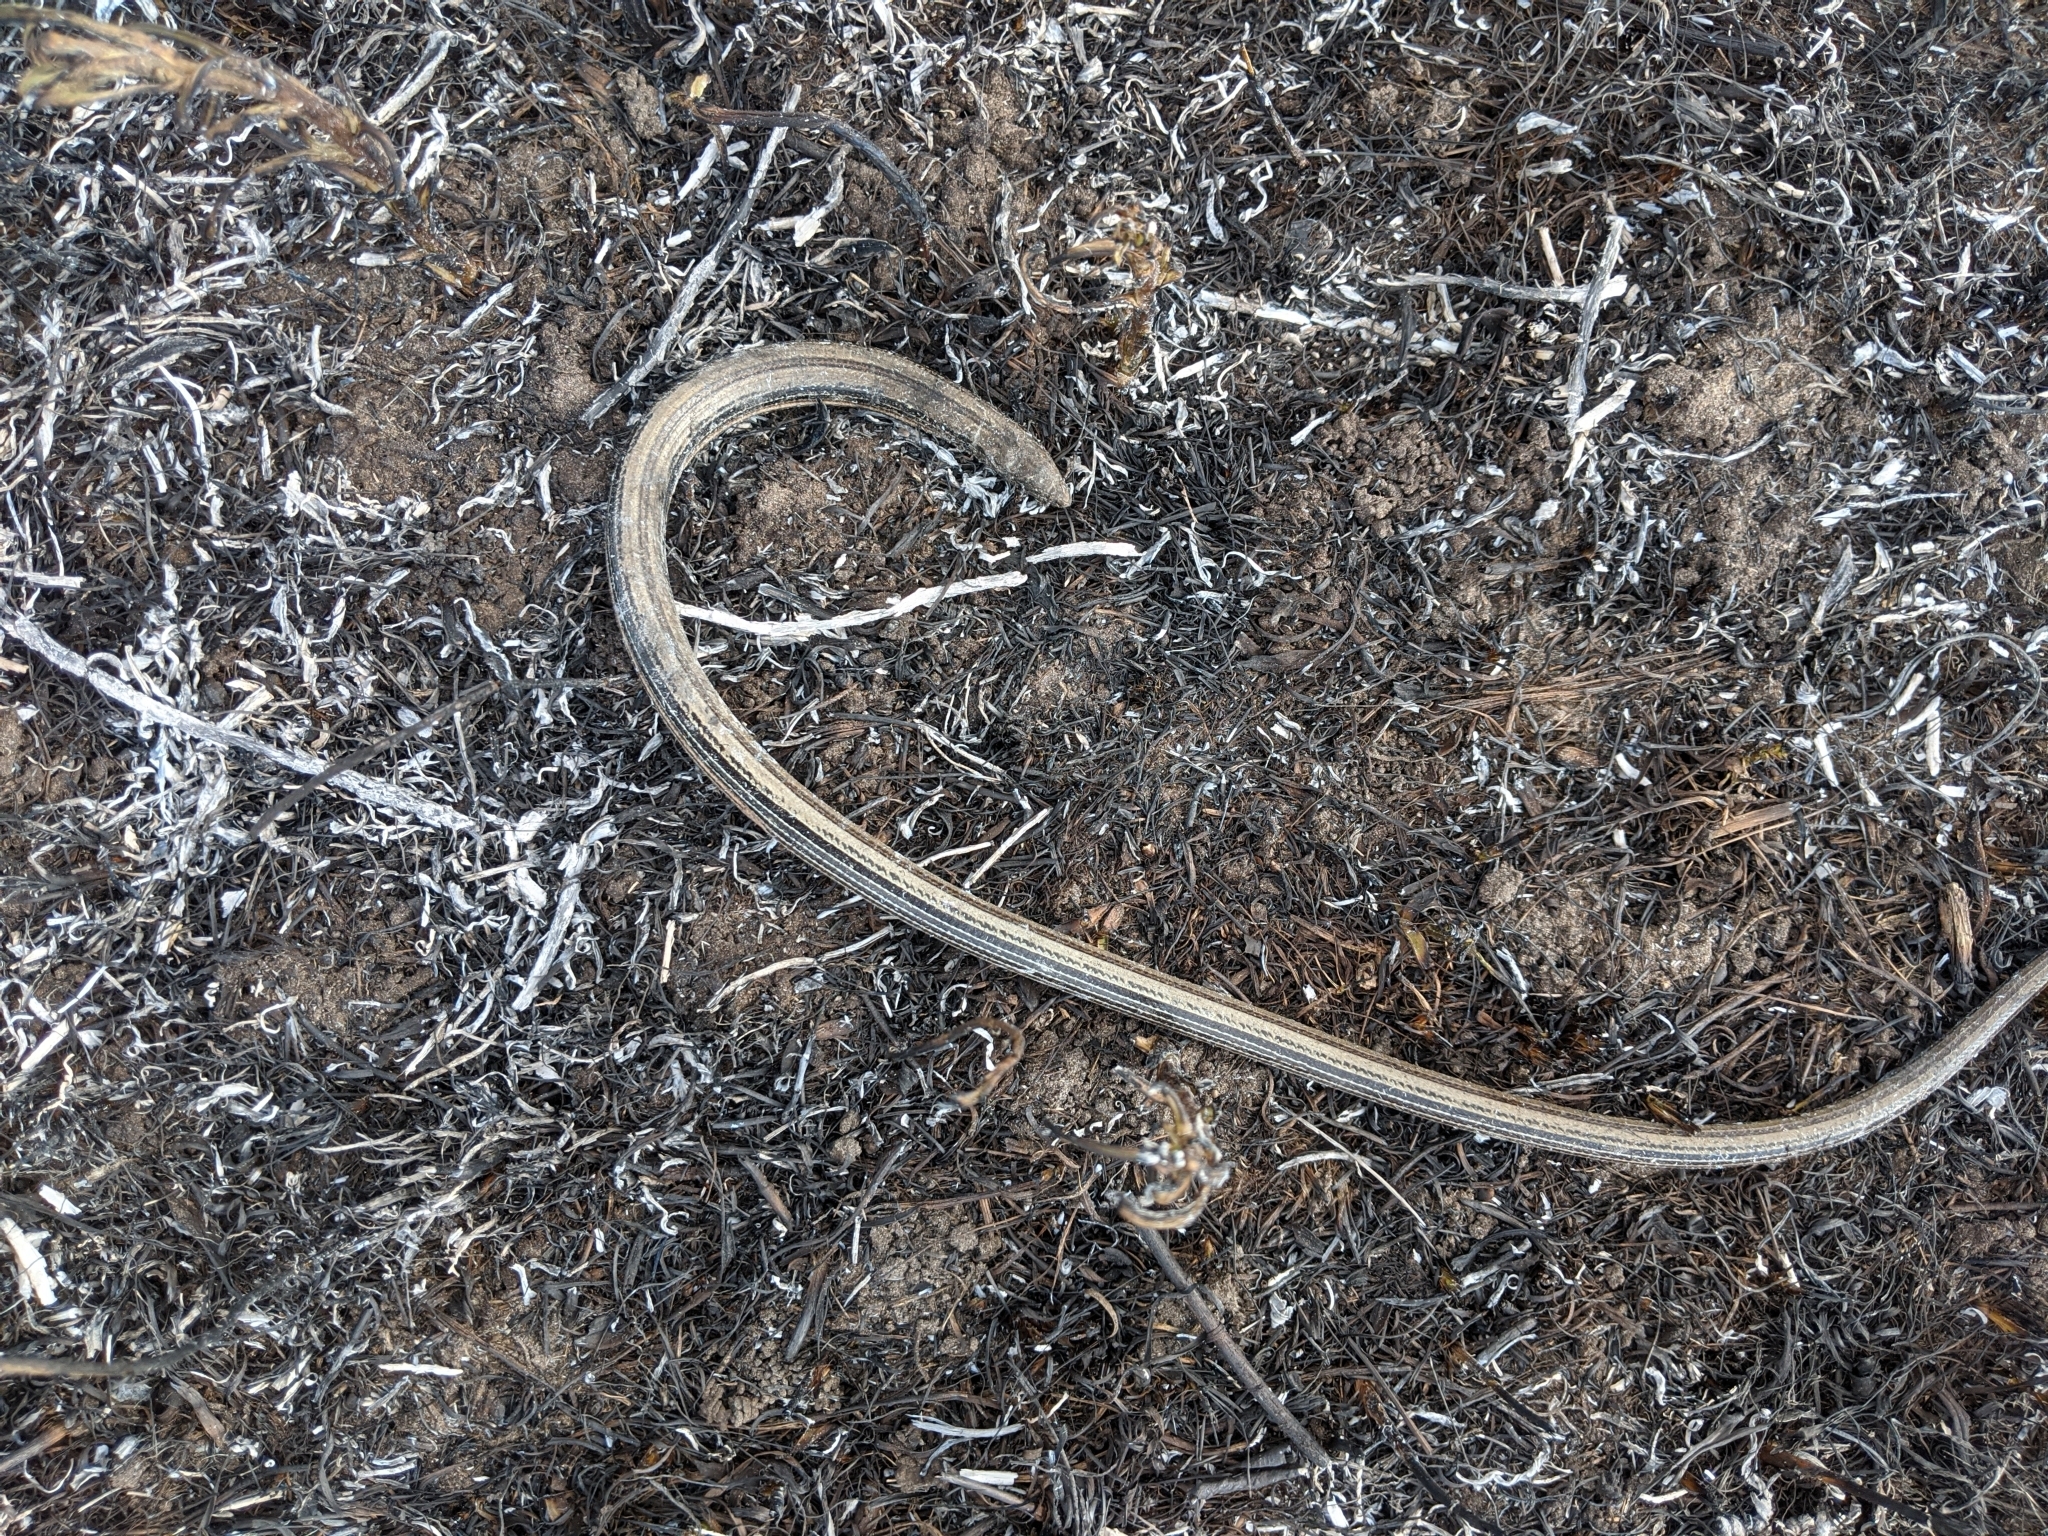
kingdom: Animalia
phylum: Chordata
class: Squamata
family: Anguidae
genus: Ophisaurus
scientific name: Ophisaurus attenuatus
